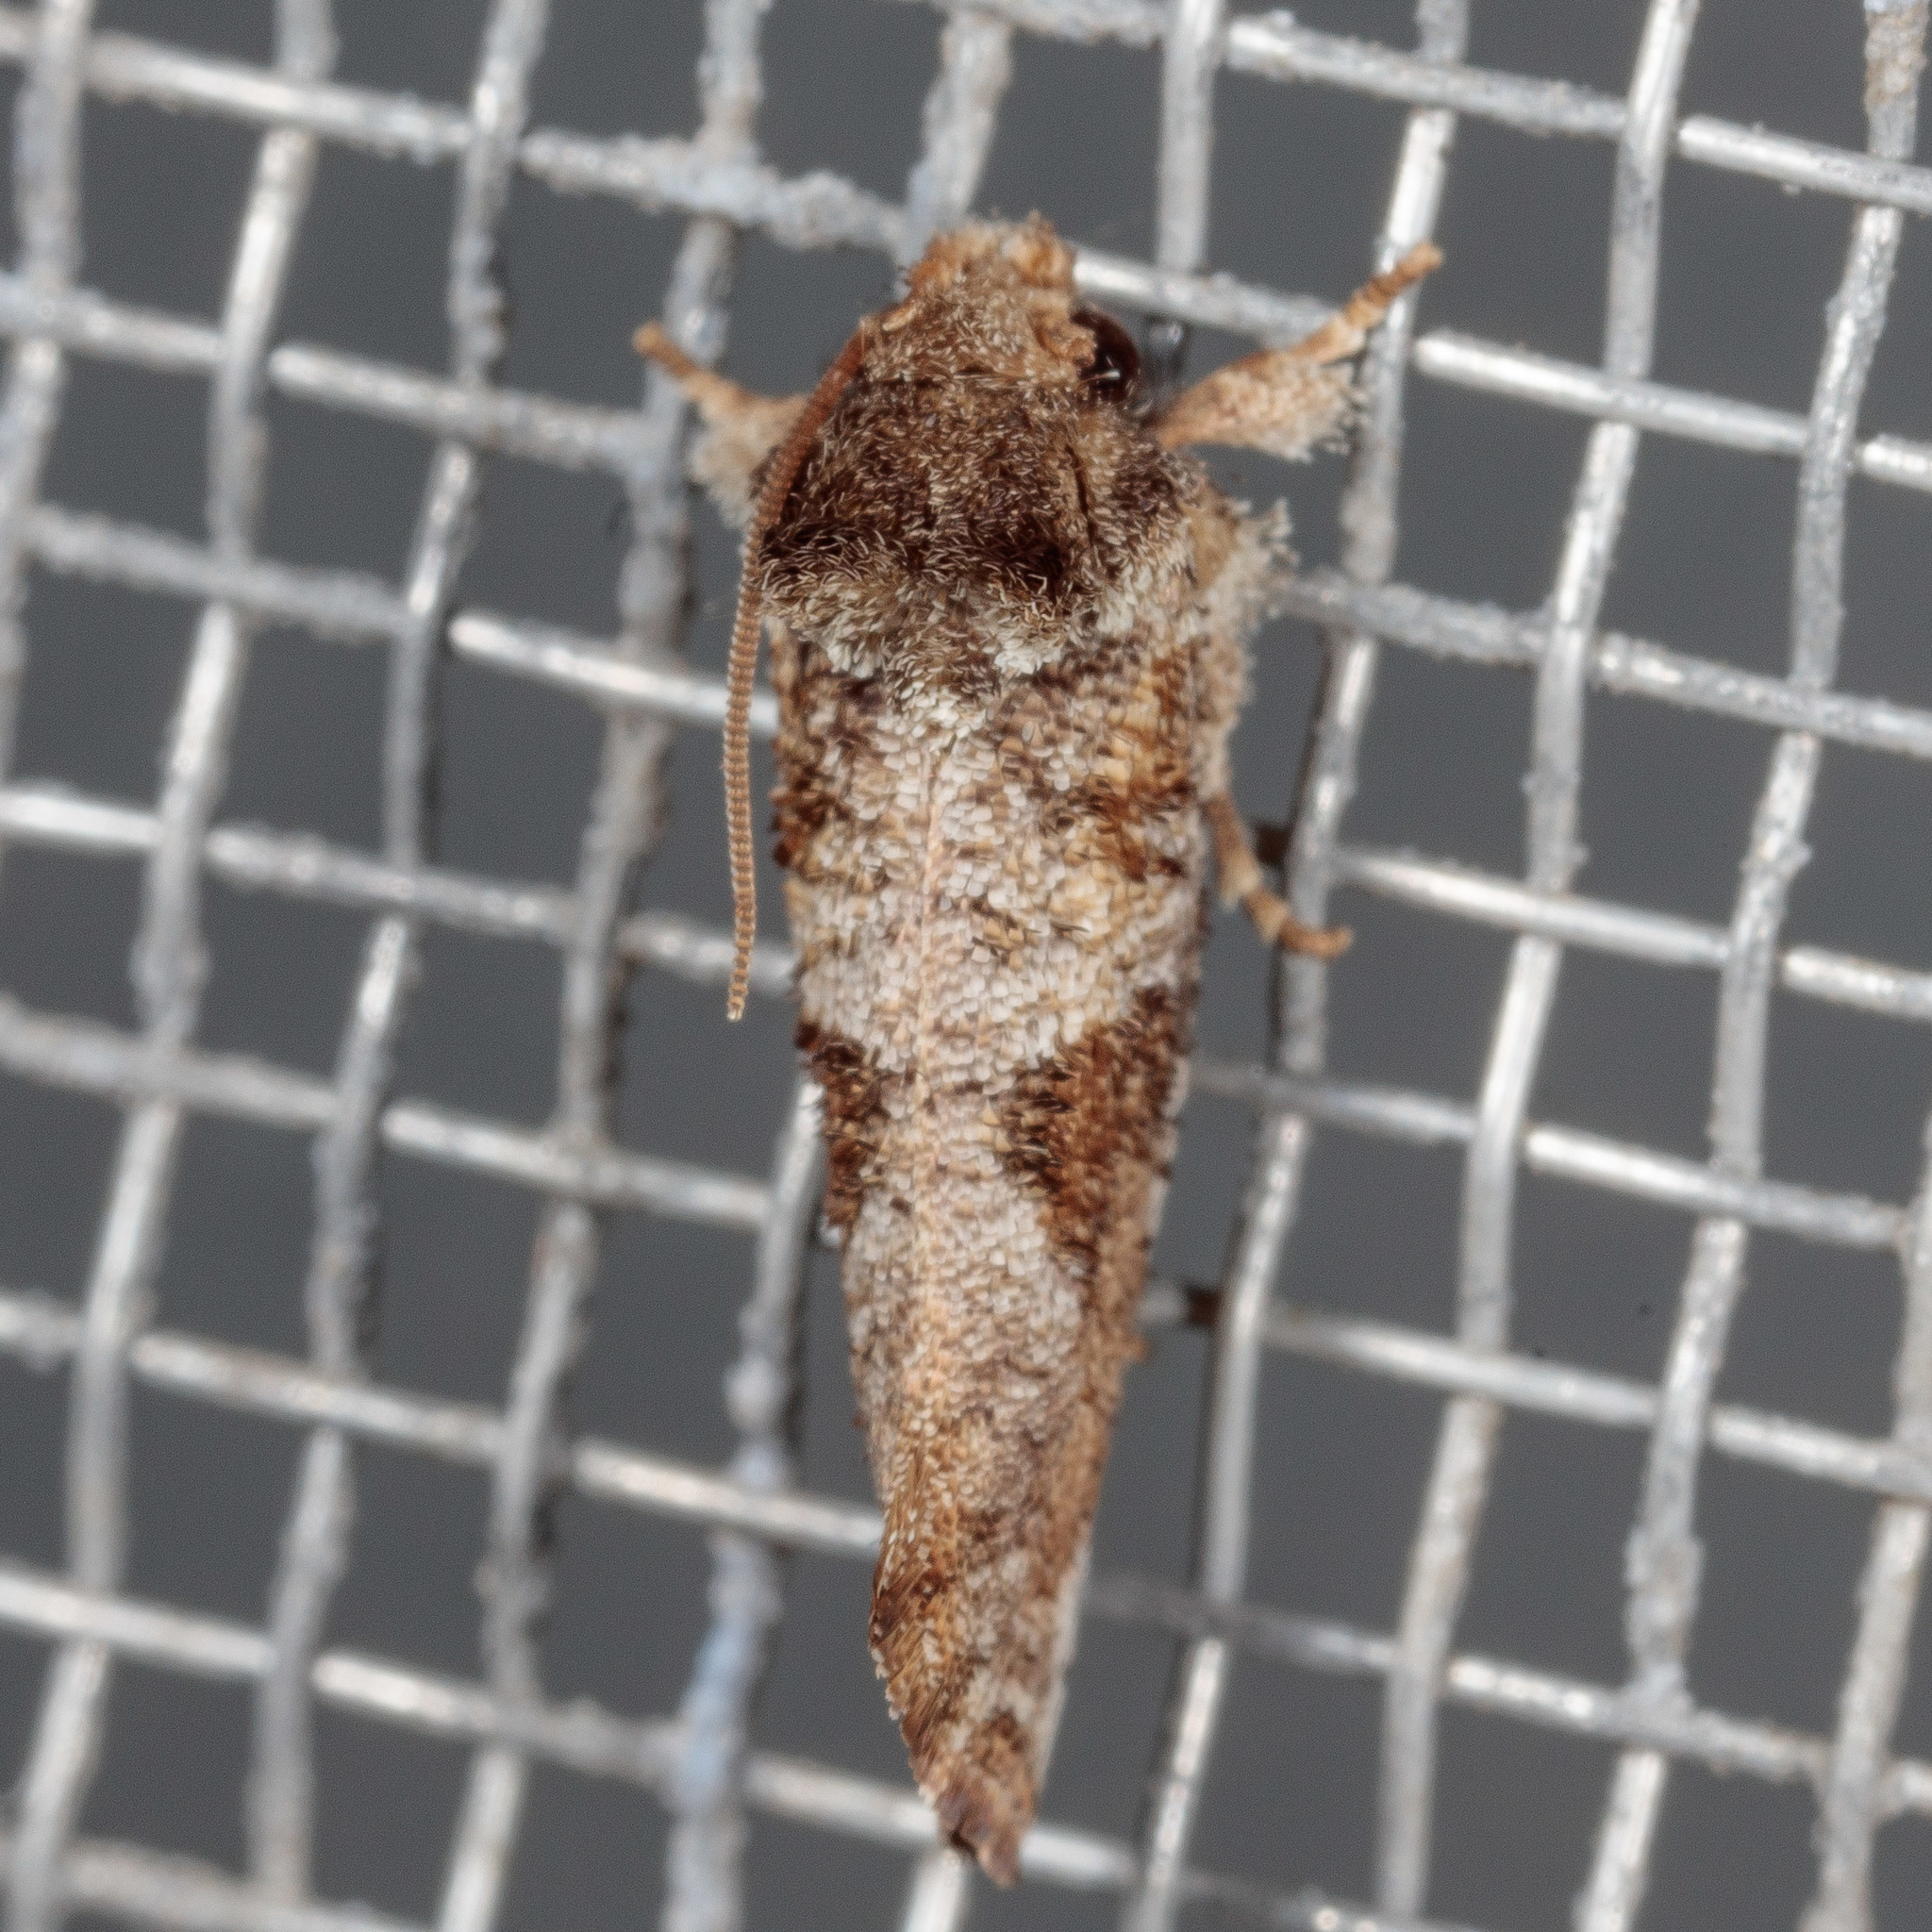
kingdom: Animalia
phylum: Arthropoda
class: Insecta
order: Lepidoptera
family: Tineidae
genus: Acrolophus
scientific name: Acrolophus piger
